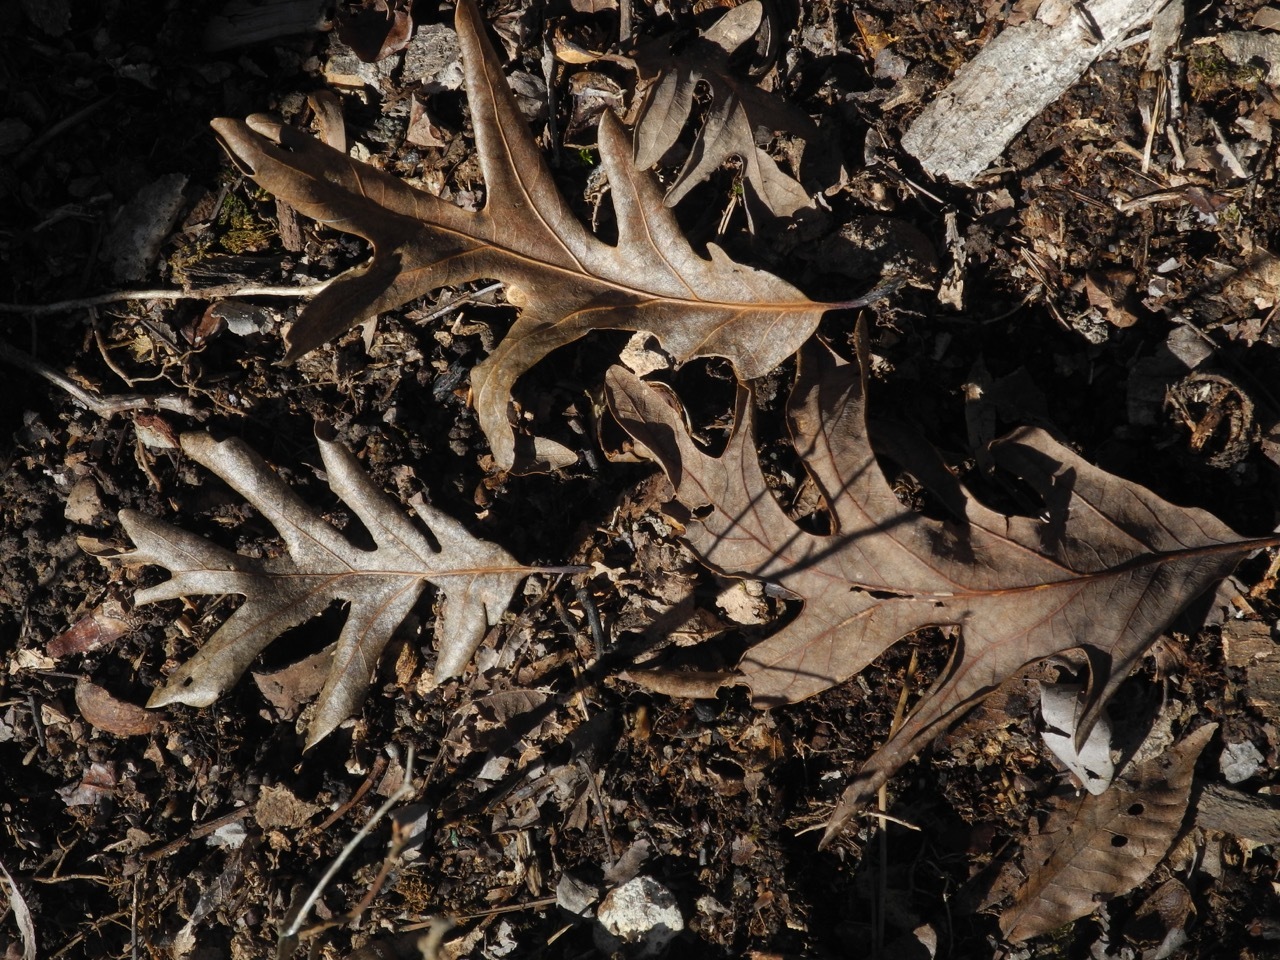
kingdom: Plantae
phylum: Tracheophyta
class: Magnoliopsida
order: Fagales
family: Fagaceae
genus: Quercus
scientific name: Quercus alba
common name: White oak
